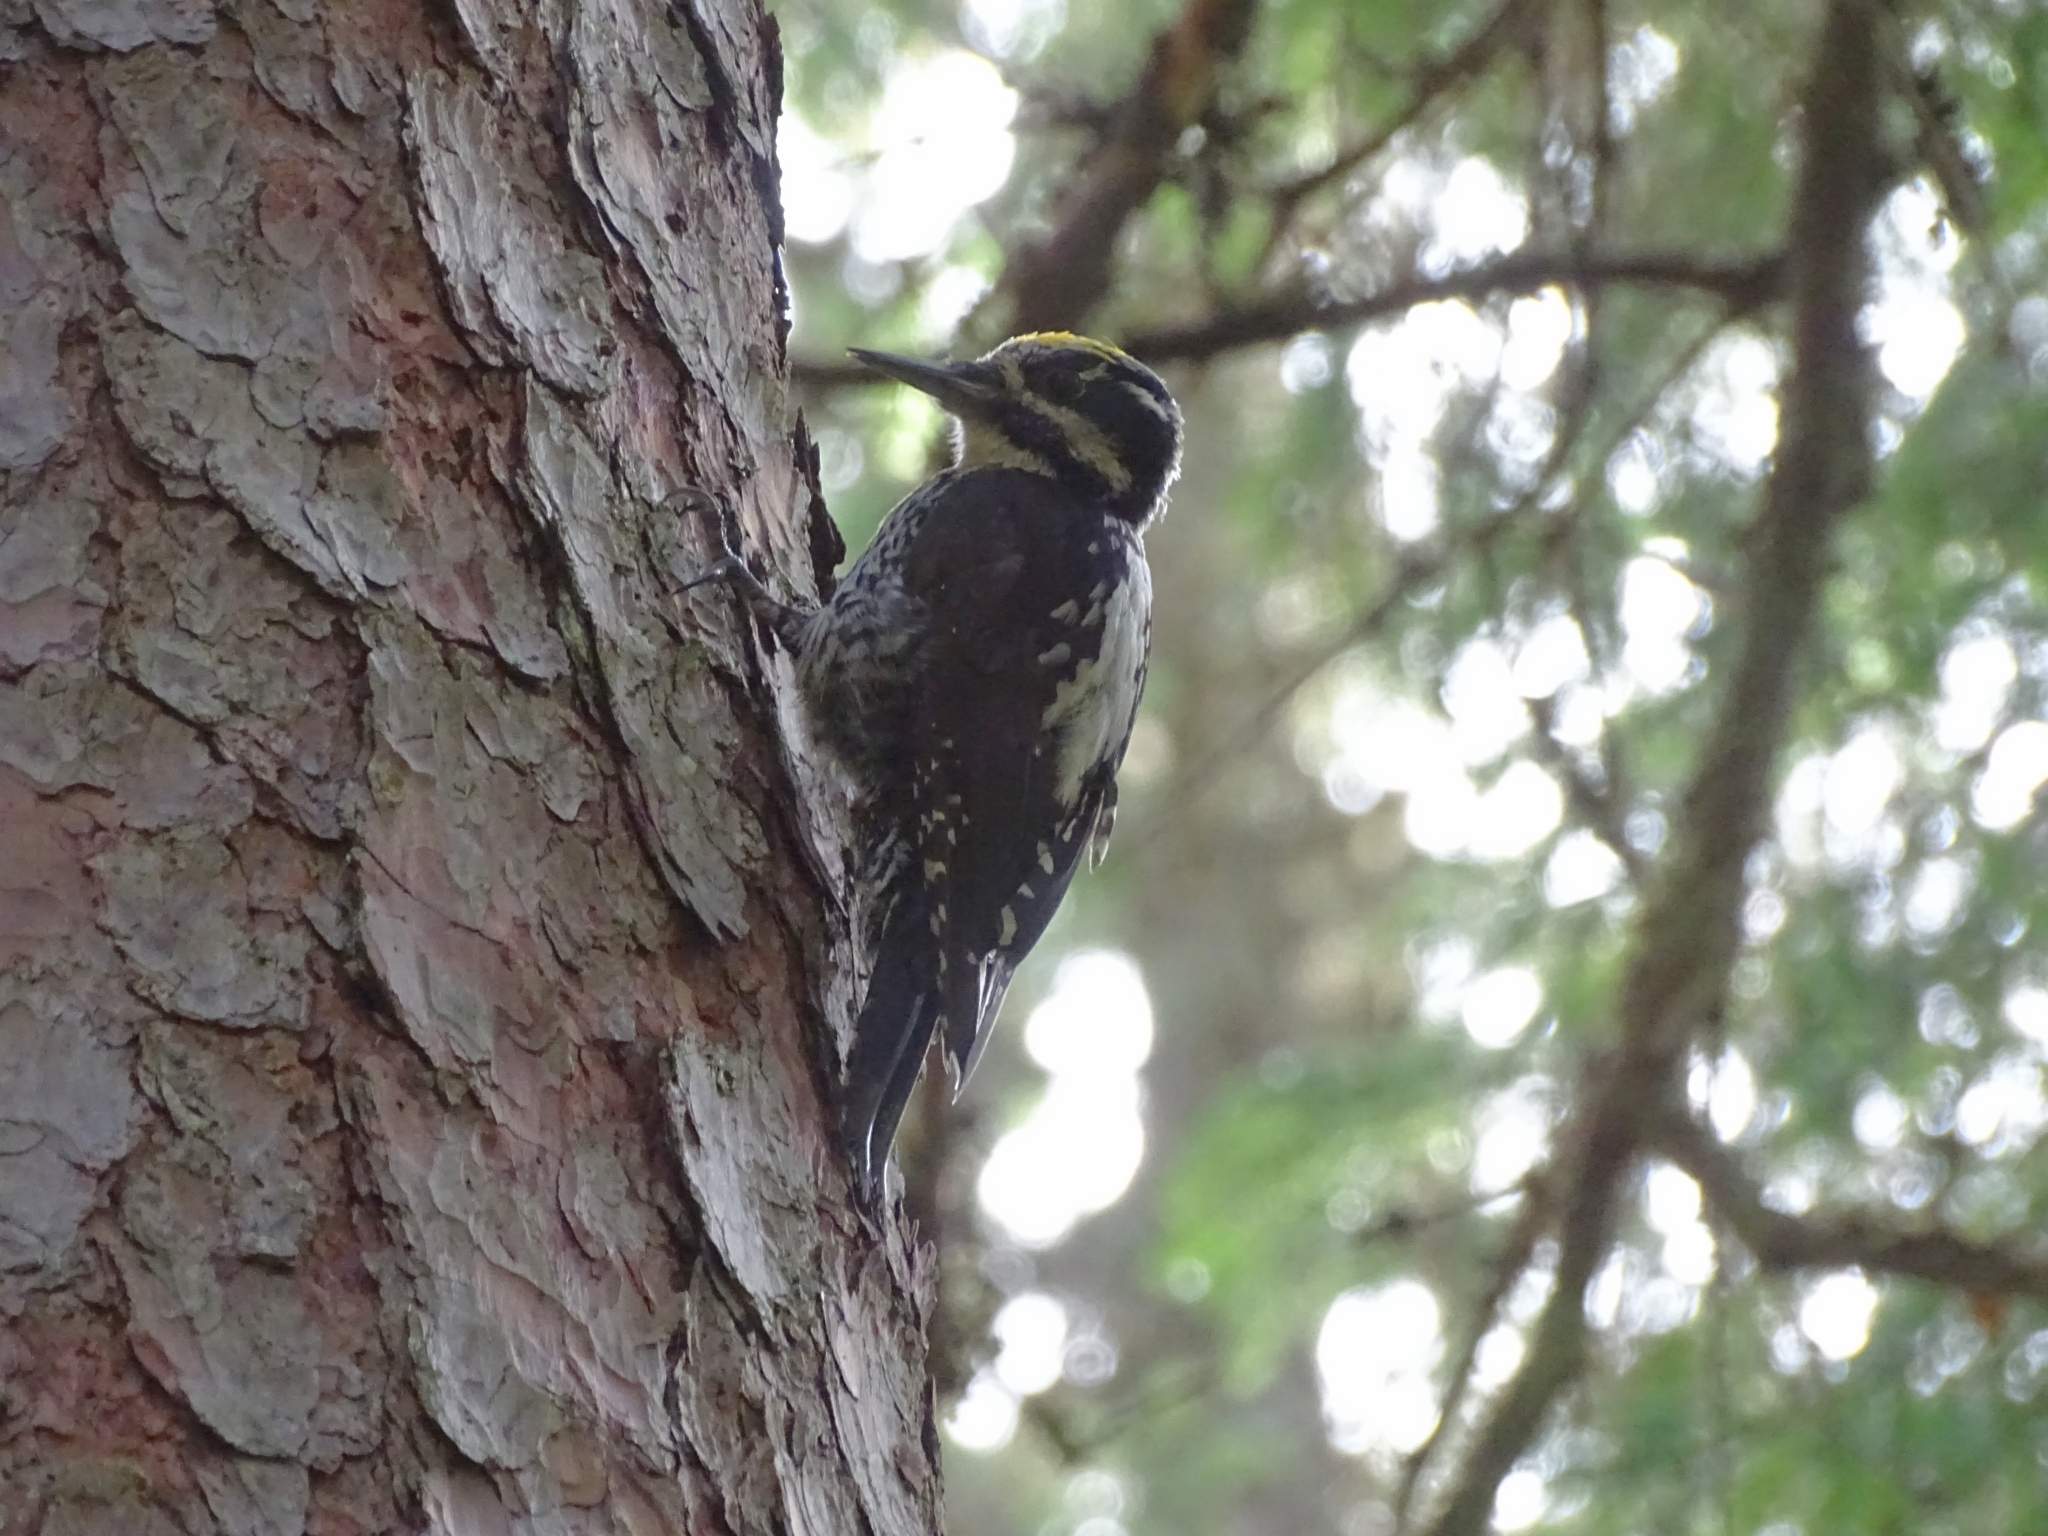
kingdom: Animalia
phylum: Chordata
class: Aves
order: Piciformes
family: Picidae
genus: Picoides
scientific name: Picoides tridactylus
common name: Eurasian three-toed woodpecker
